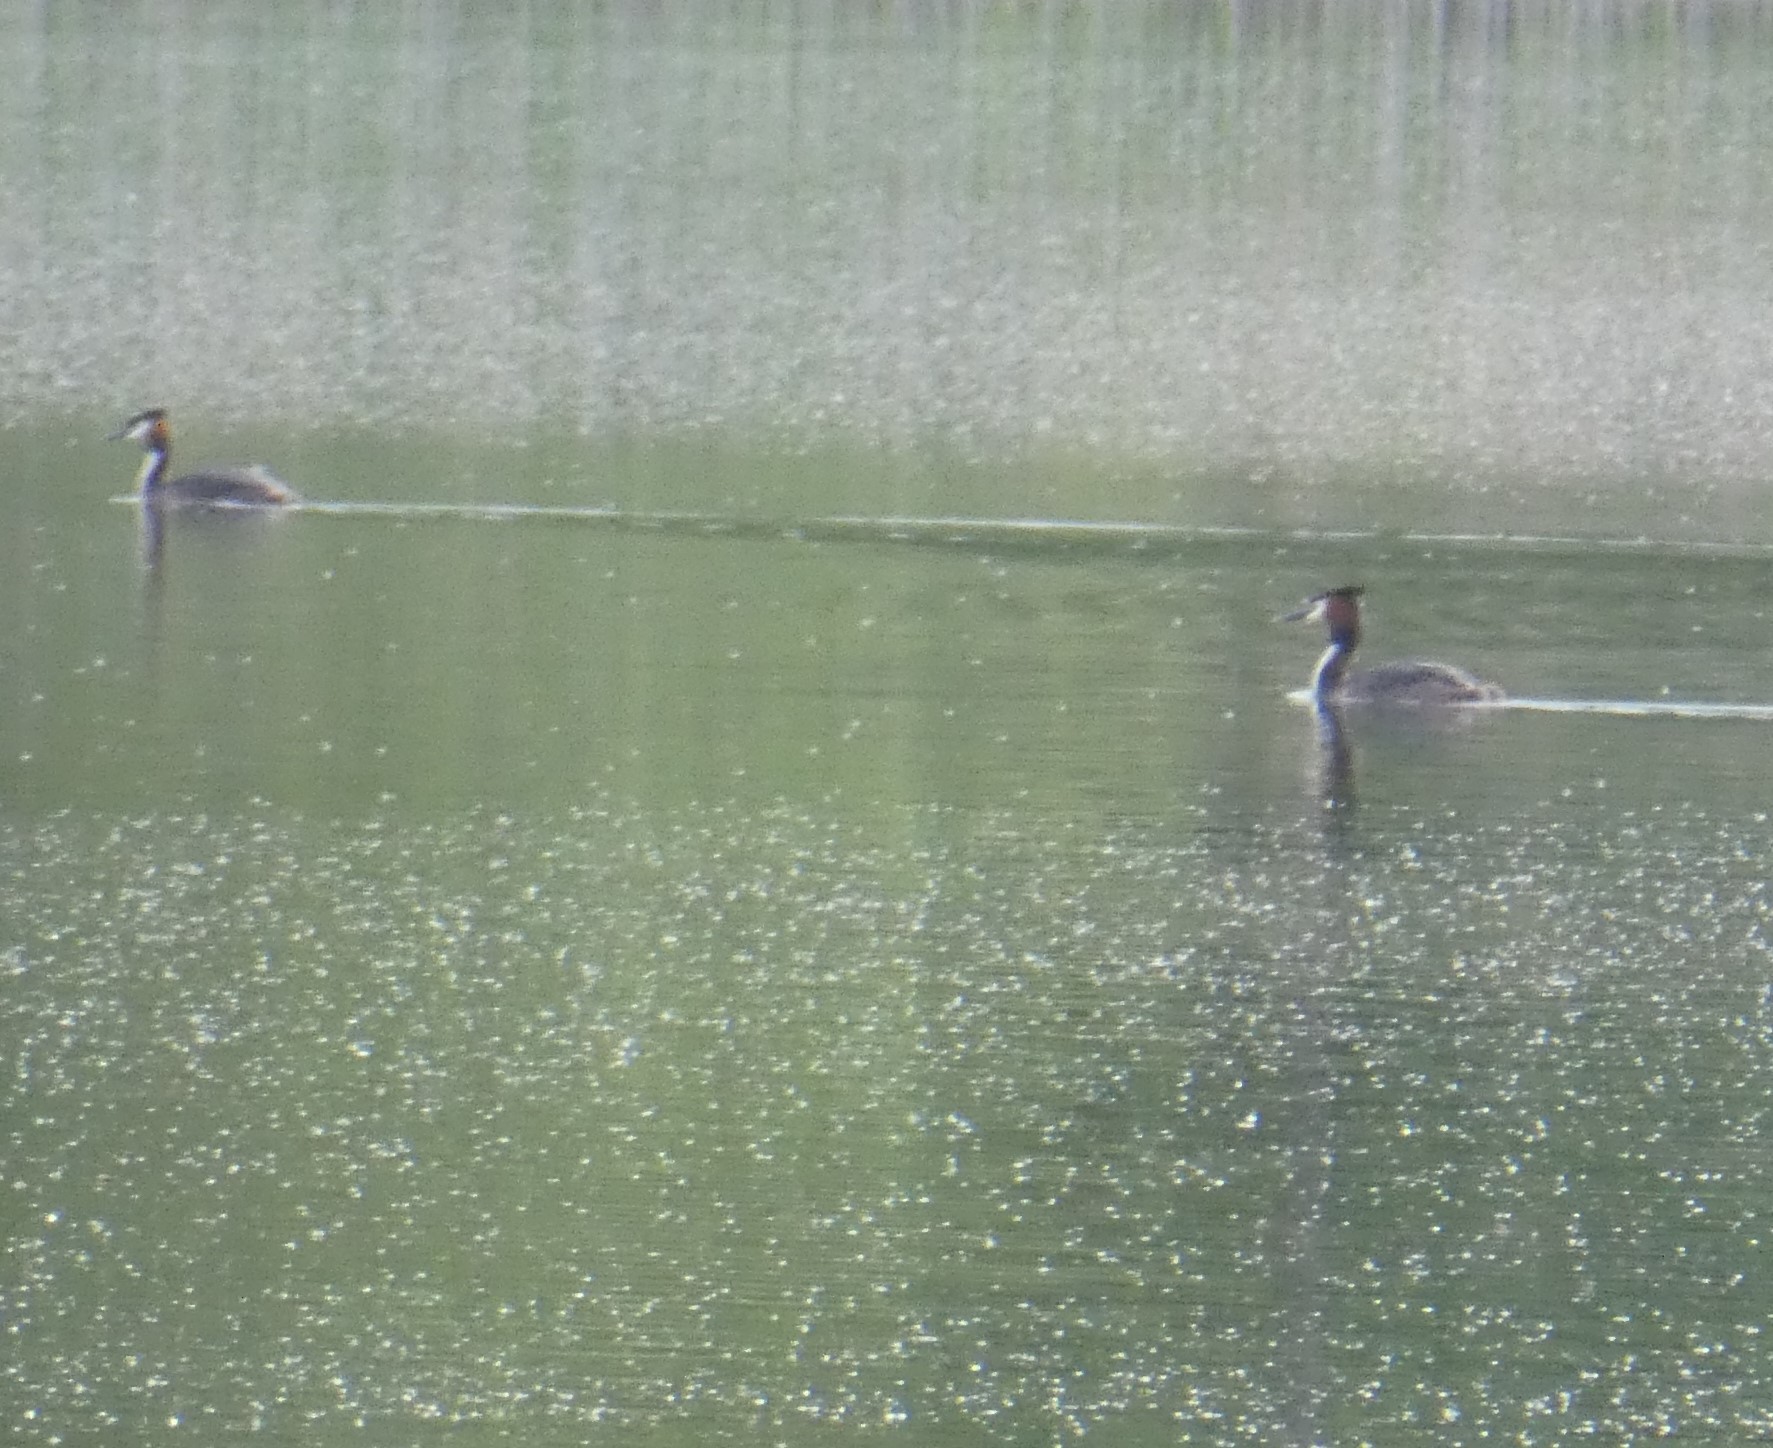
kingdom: Animalia
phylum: Chordata
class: Aves
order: Podicipediformes
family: Podicipedidae
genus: Podiceps
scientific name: Podiceps cristatus
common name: Great crested grebe
